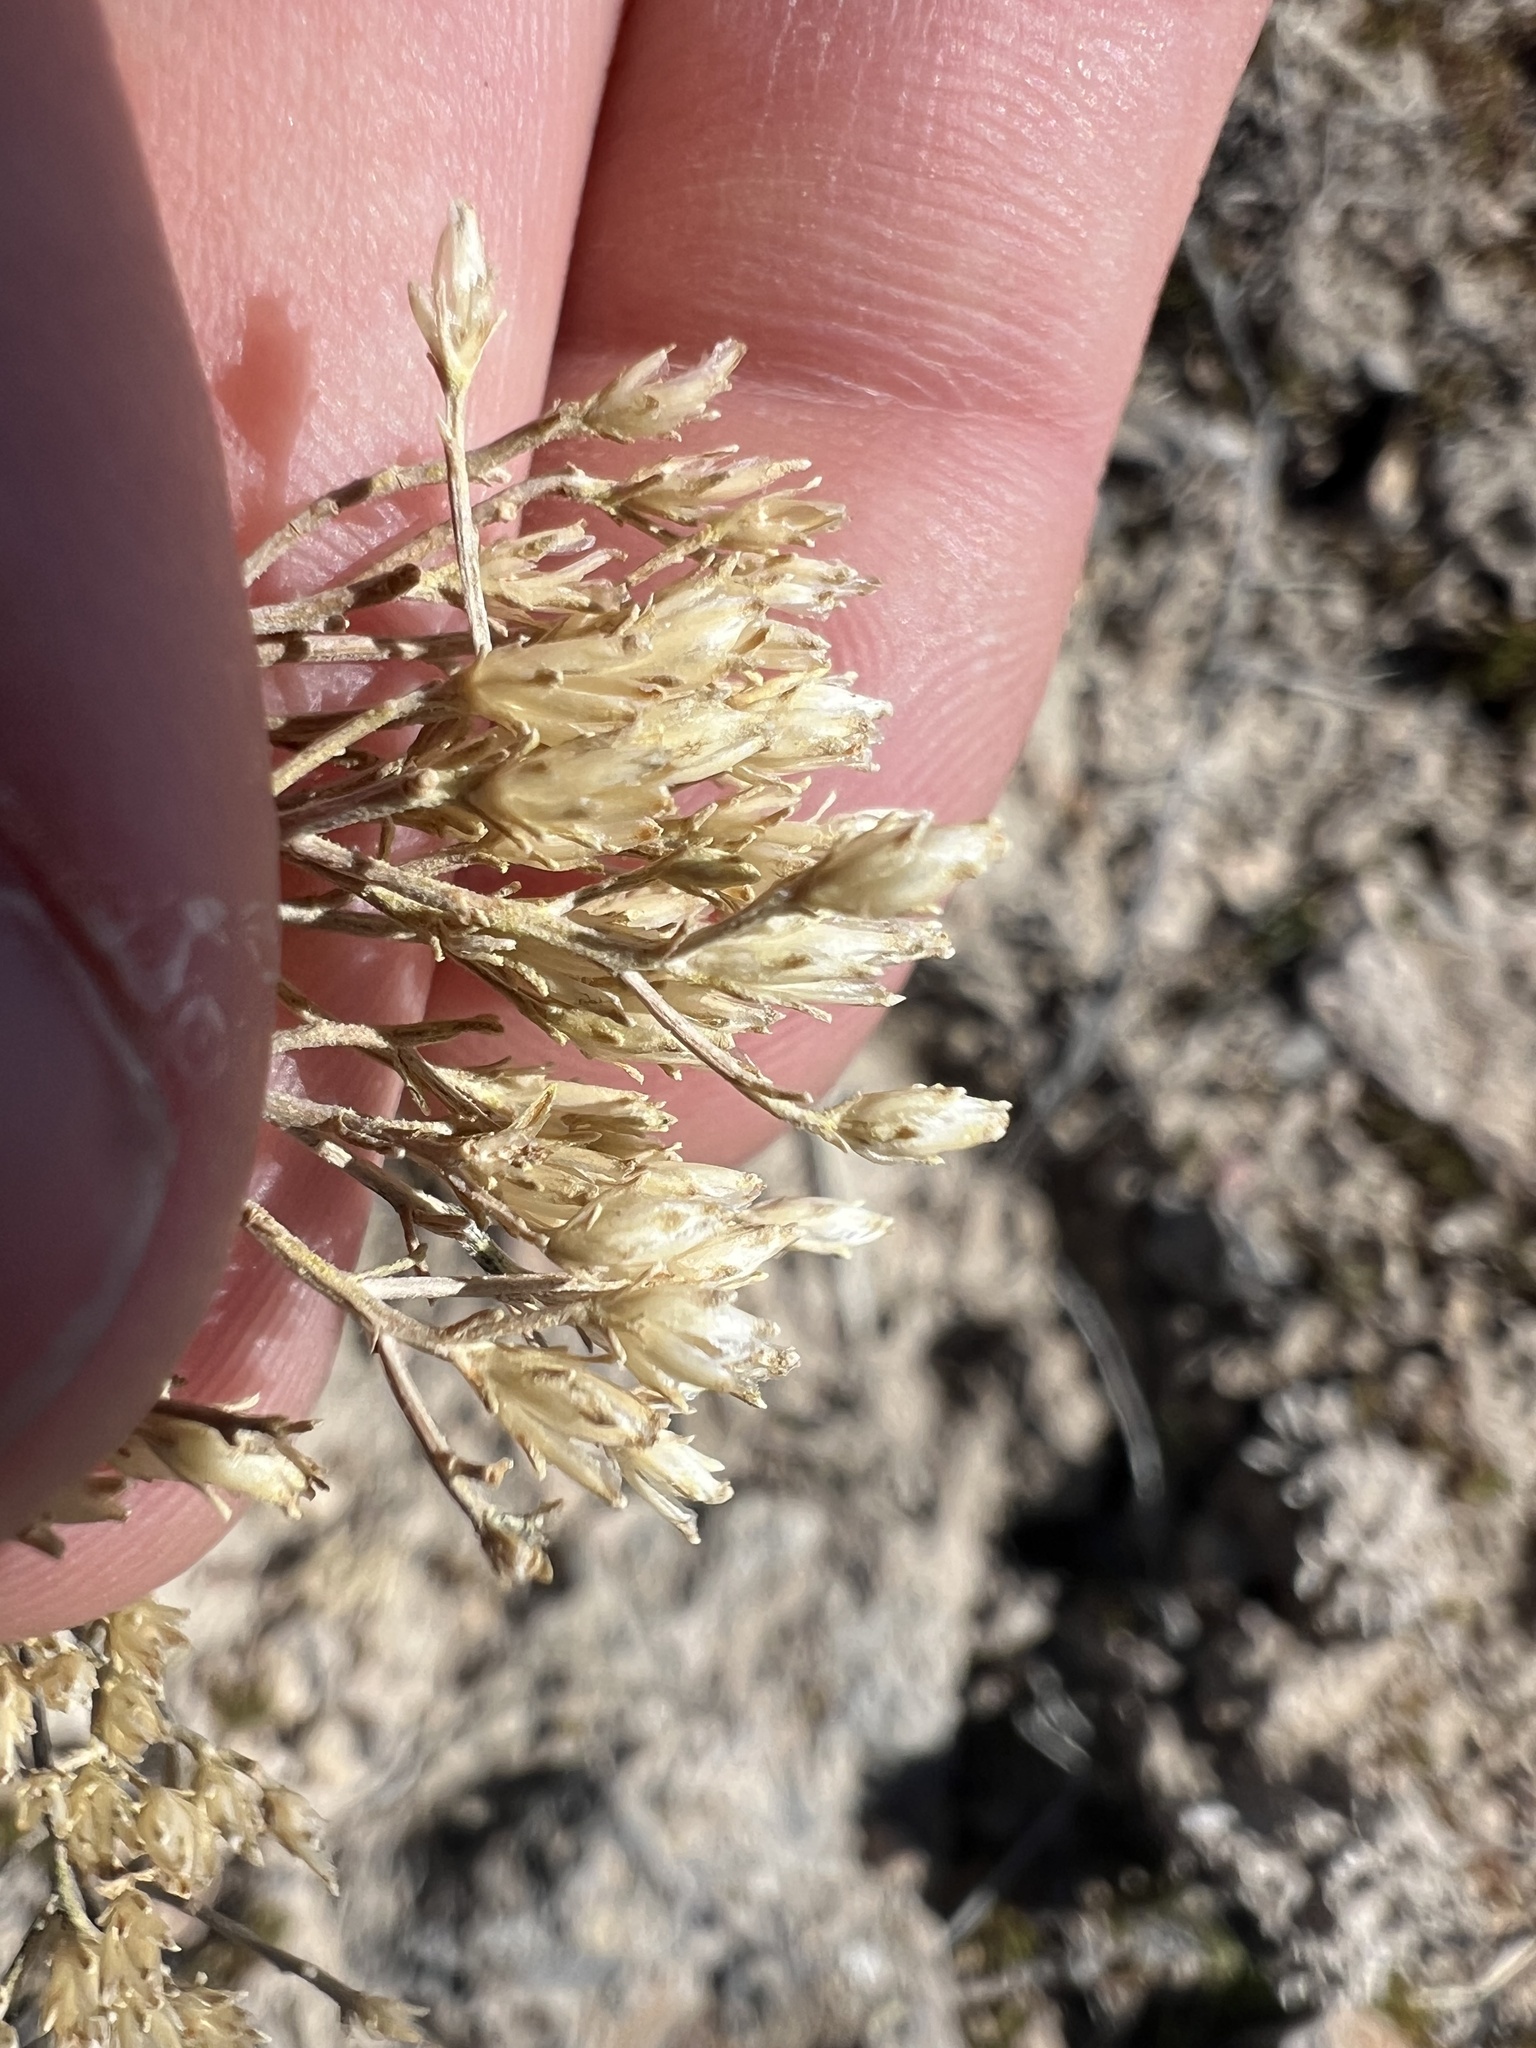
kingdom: Plantae
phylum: Tracheophyta
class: Magnoliopsida
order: Asterales
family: Asteraceae
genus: Gutierrezia
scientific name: Gutierrezia sarothrae
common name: Broom snakeweed
